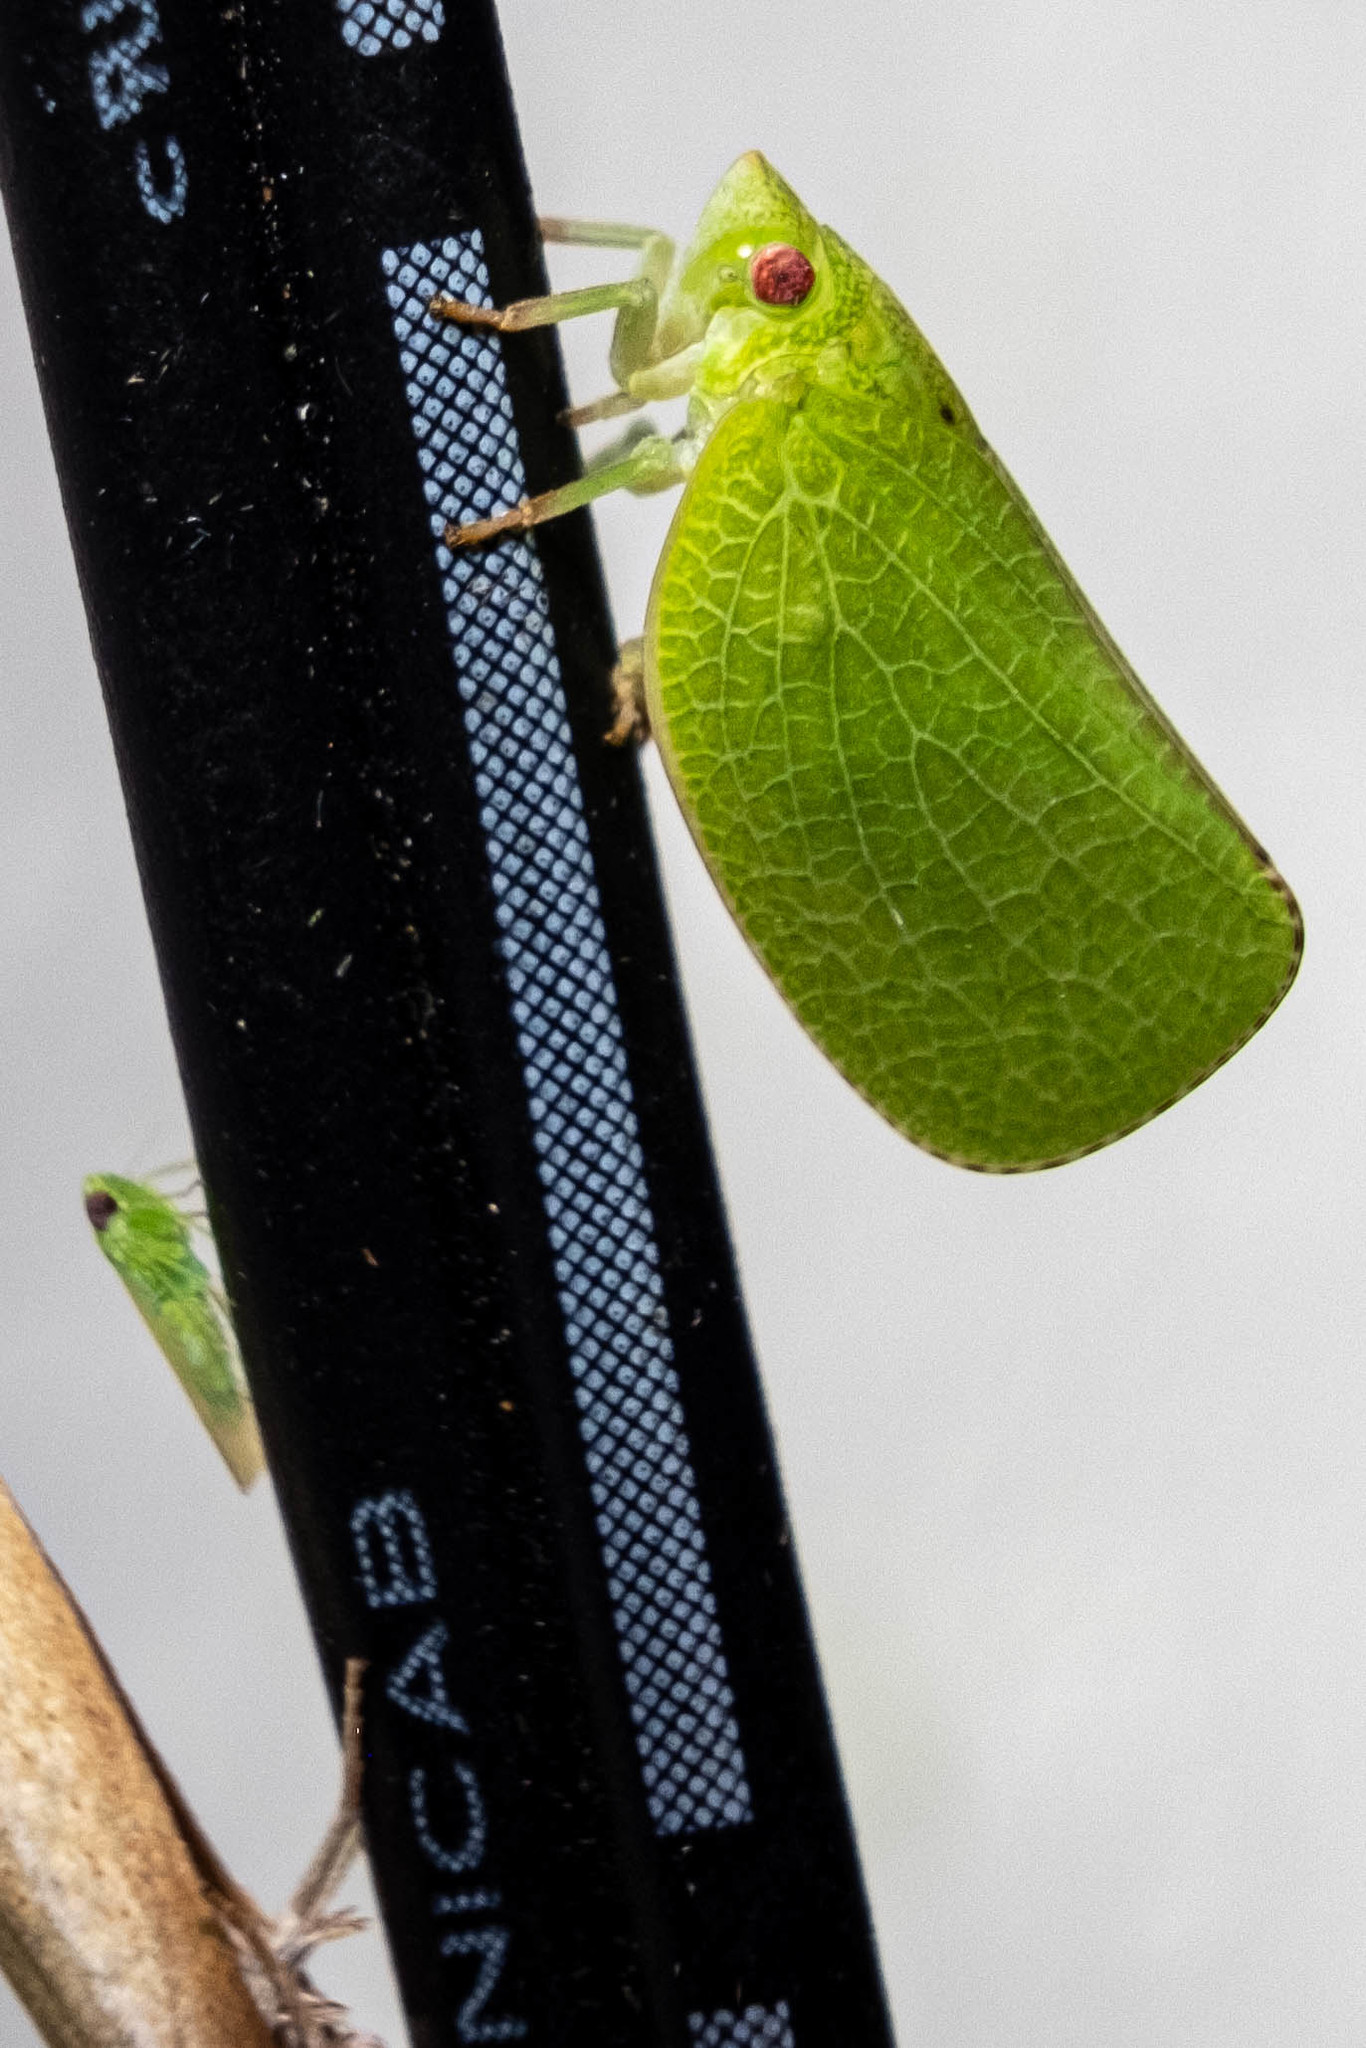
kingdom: Animalia
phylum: Arthropoda
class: Insecta
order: Hemiptera
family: Acanaloniidae
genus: Acanalonia
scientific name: Acanalonia conica
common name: Green cone-headed planthopper
